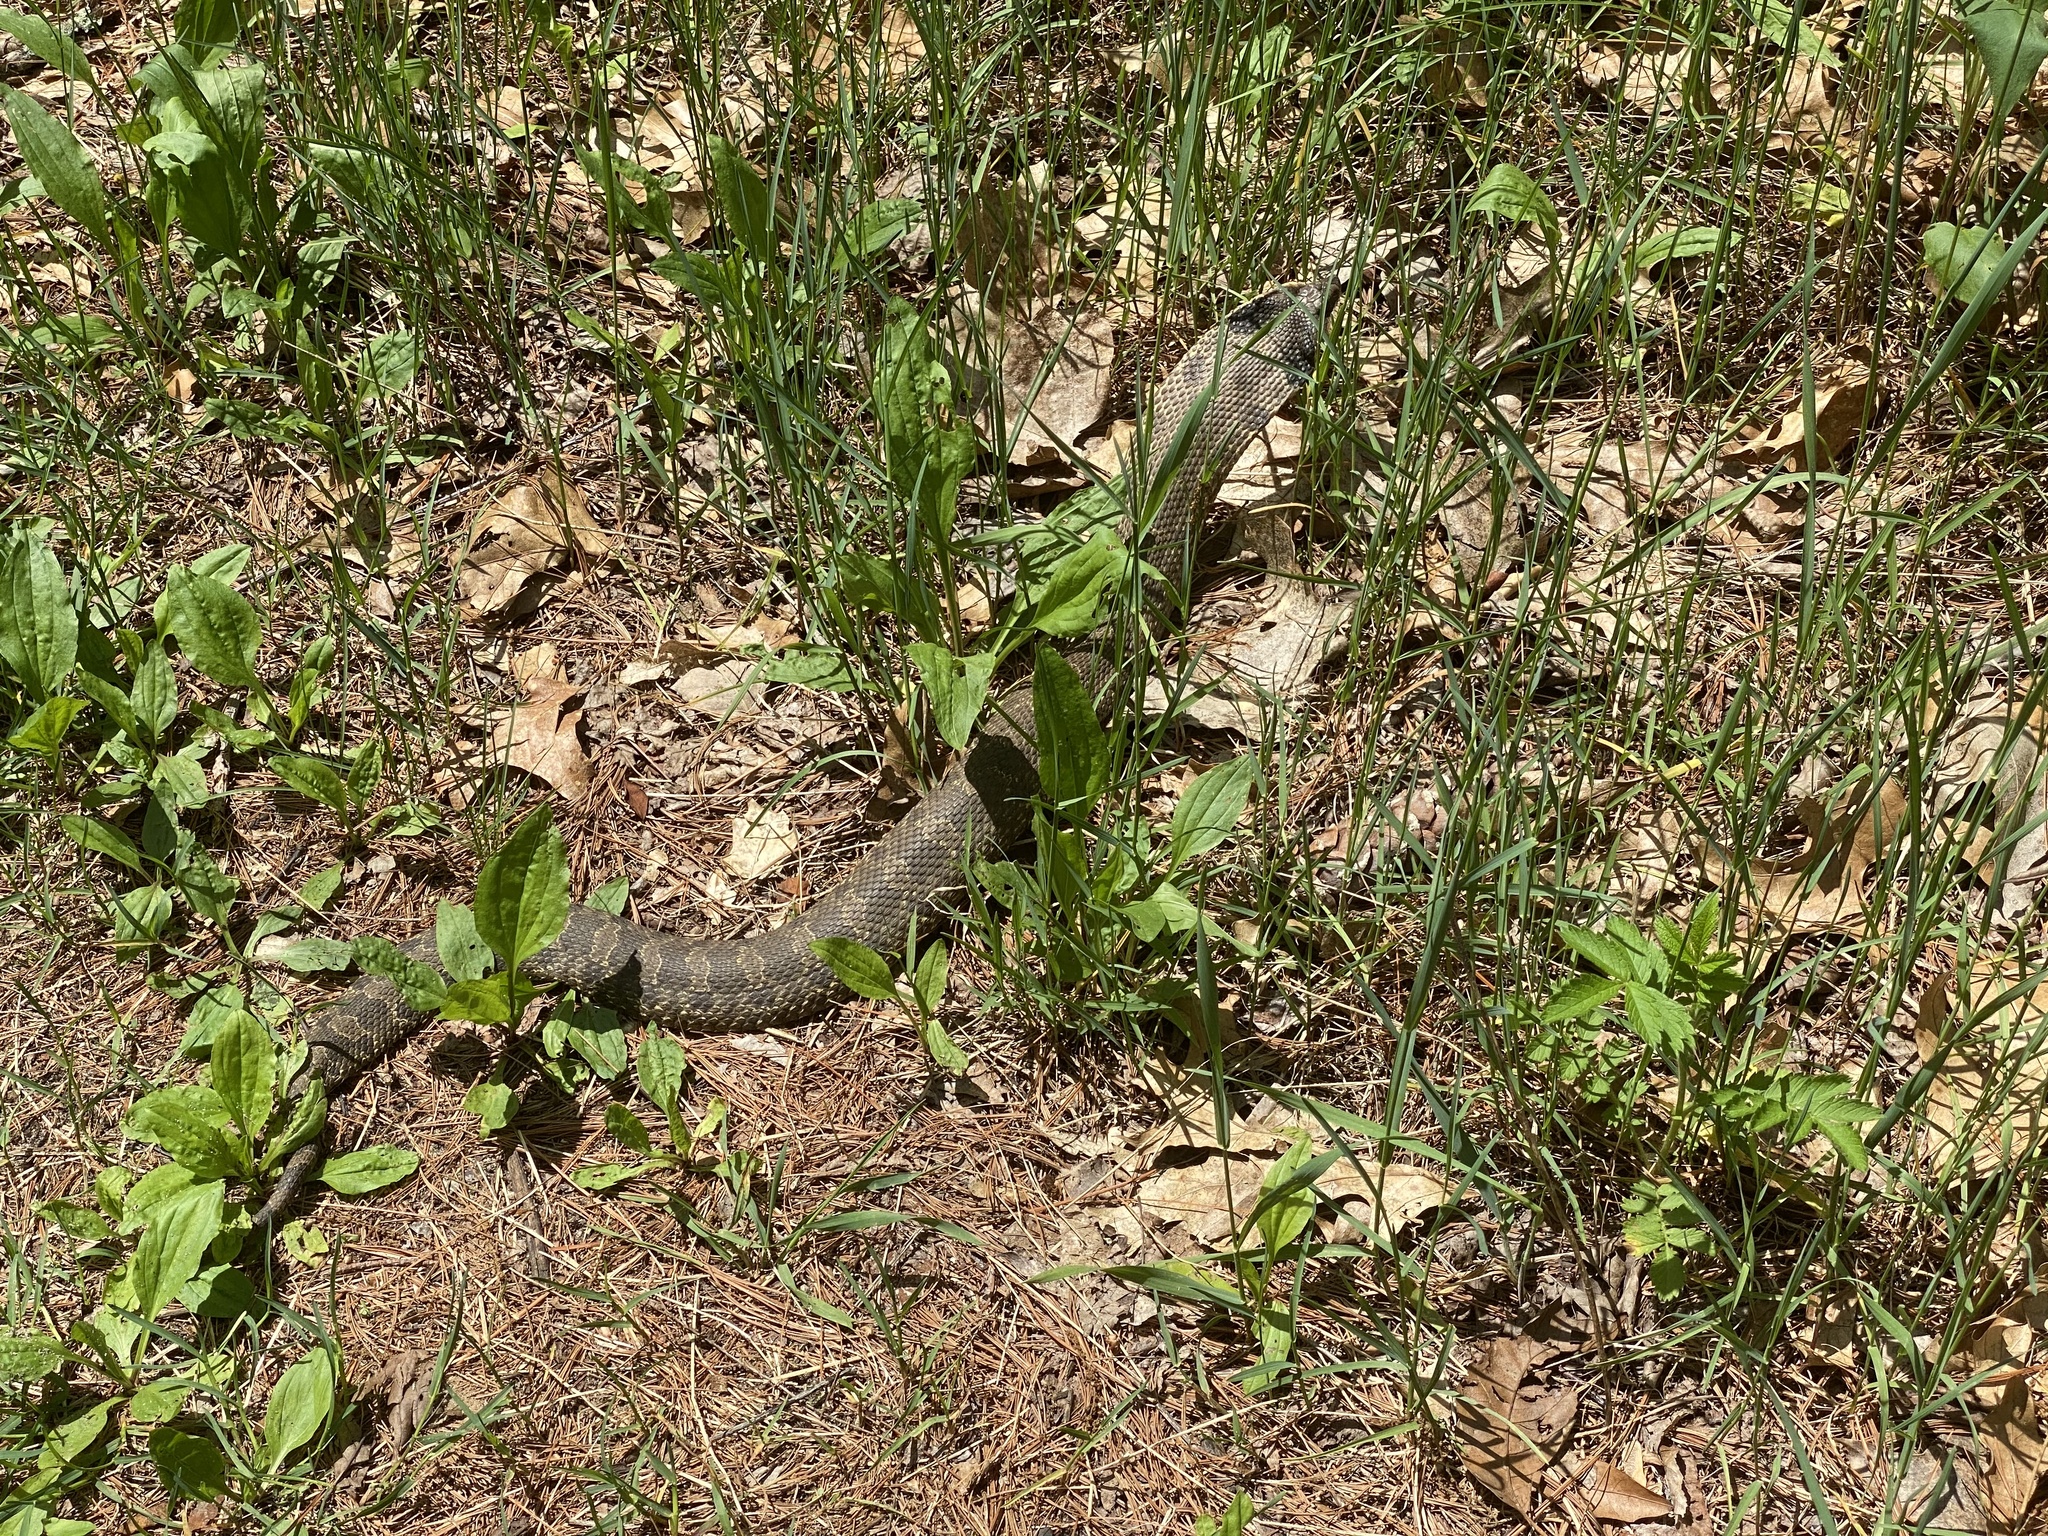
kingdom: Animalia
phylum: Chordata
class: Squamata
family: Colubridae
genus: Heterodon
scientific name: Heterodon platirhinos
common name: Eastern hognose snake
